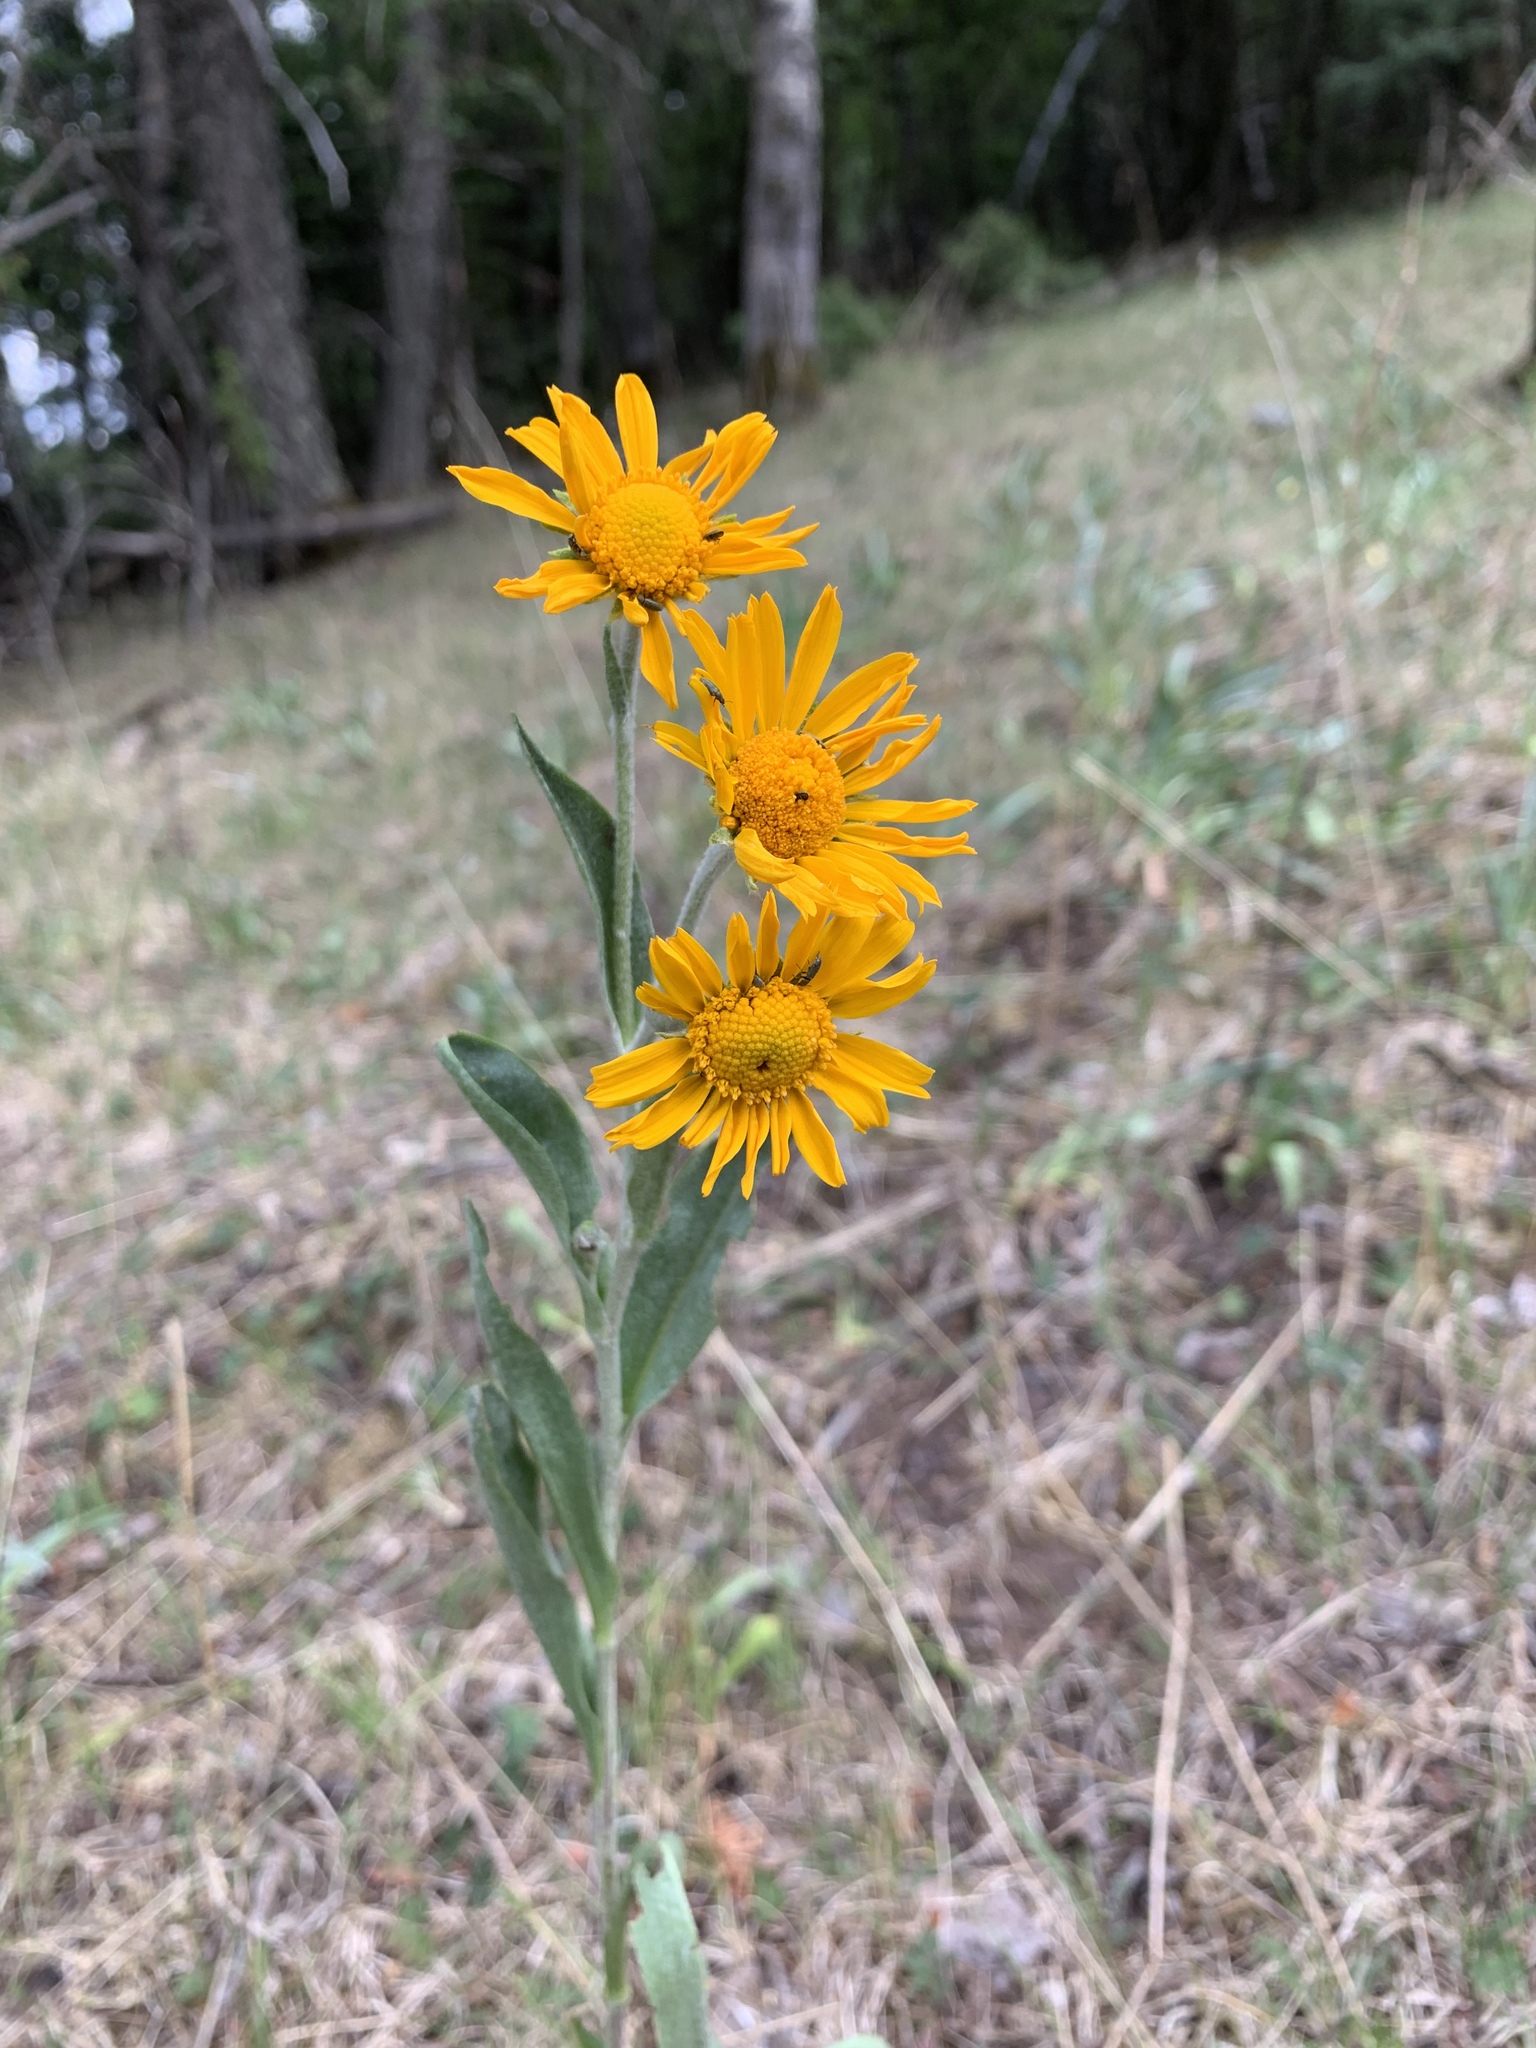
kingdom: Plantae
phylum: Tracheophyta
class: Magnoliopsida
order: Asterales
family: Asteraceae
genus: Hymenoxys
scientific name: Hymenoxys hoopesii
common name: Orange-sneezeweed
